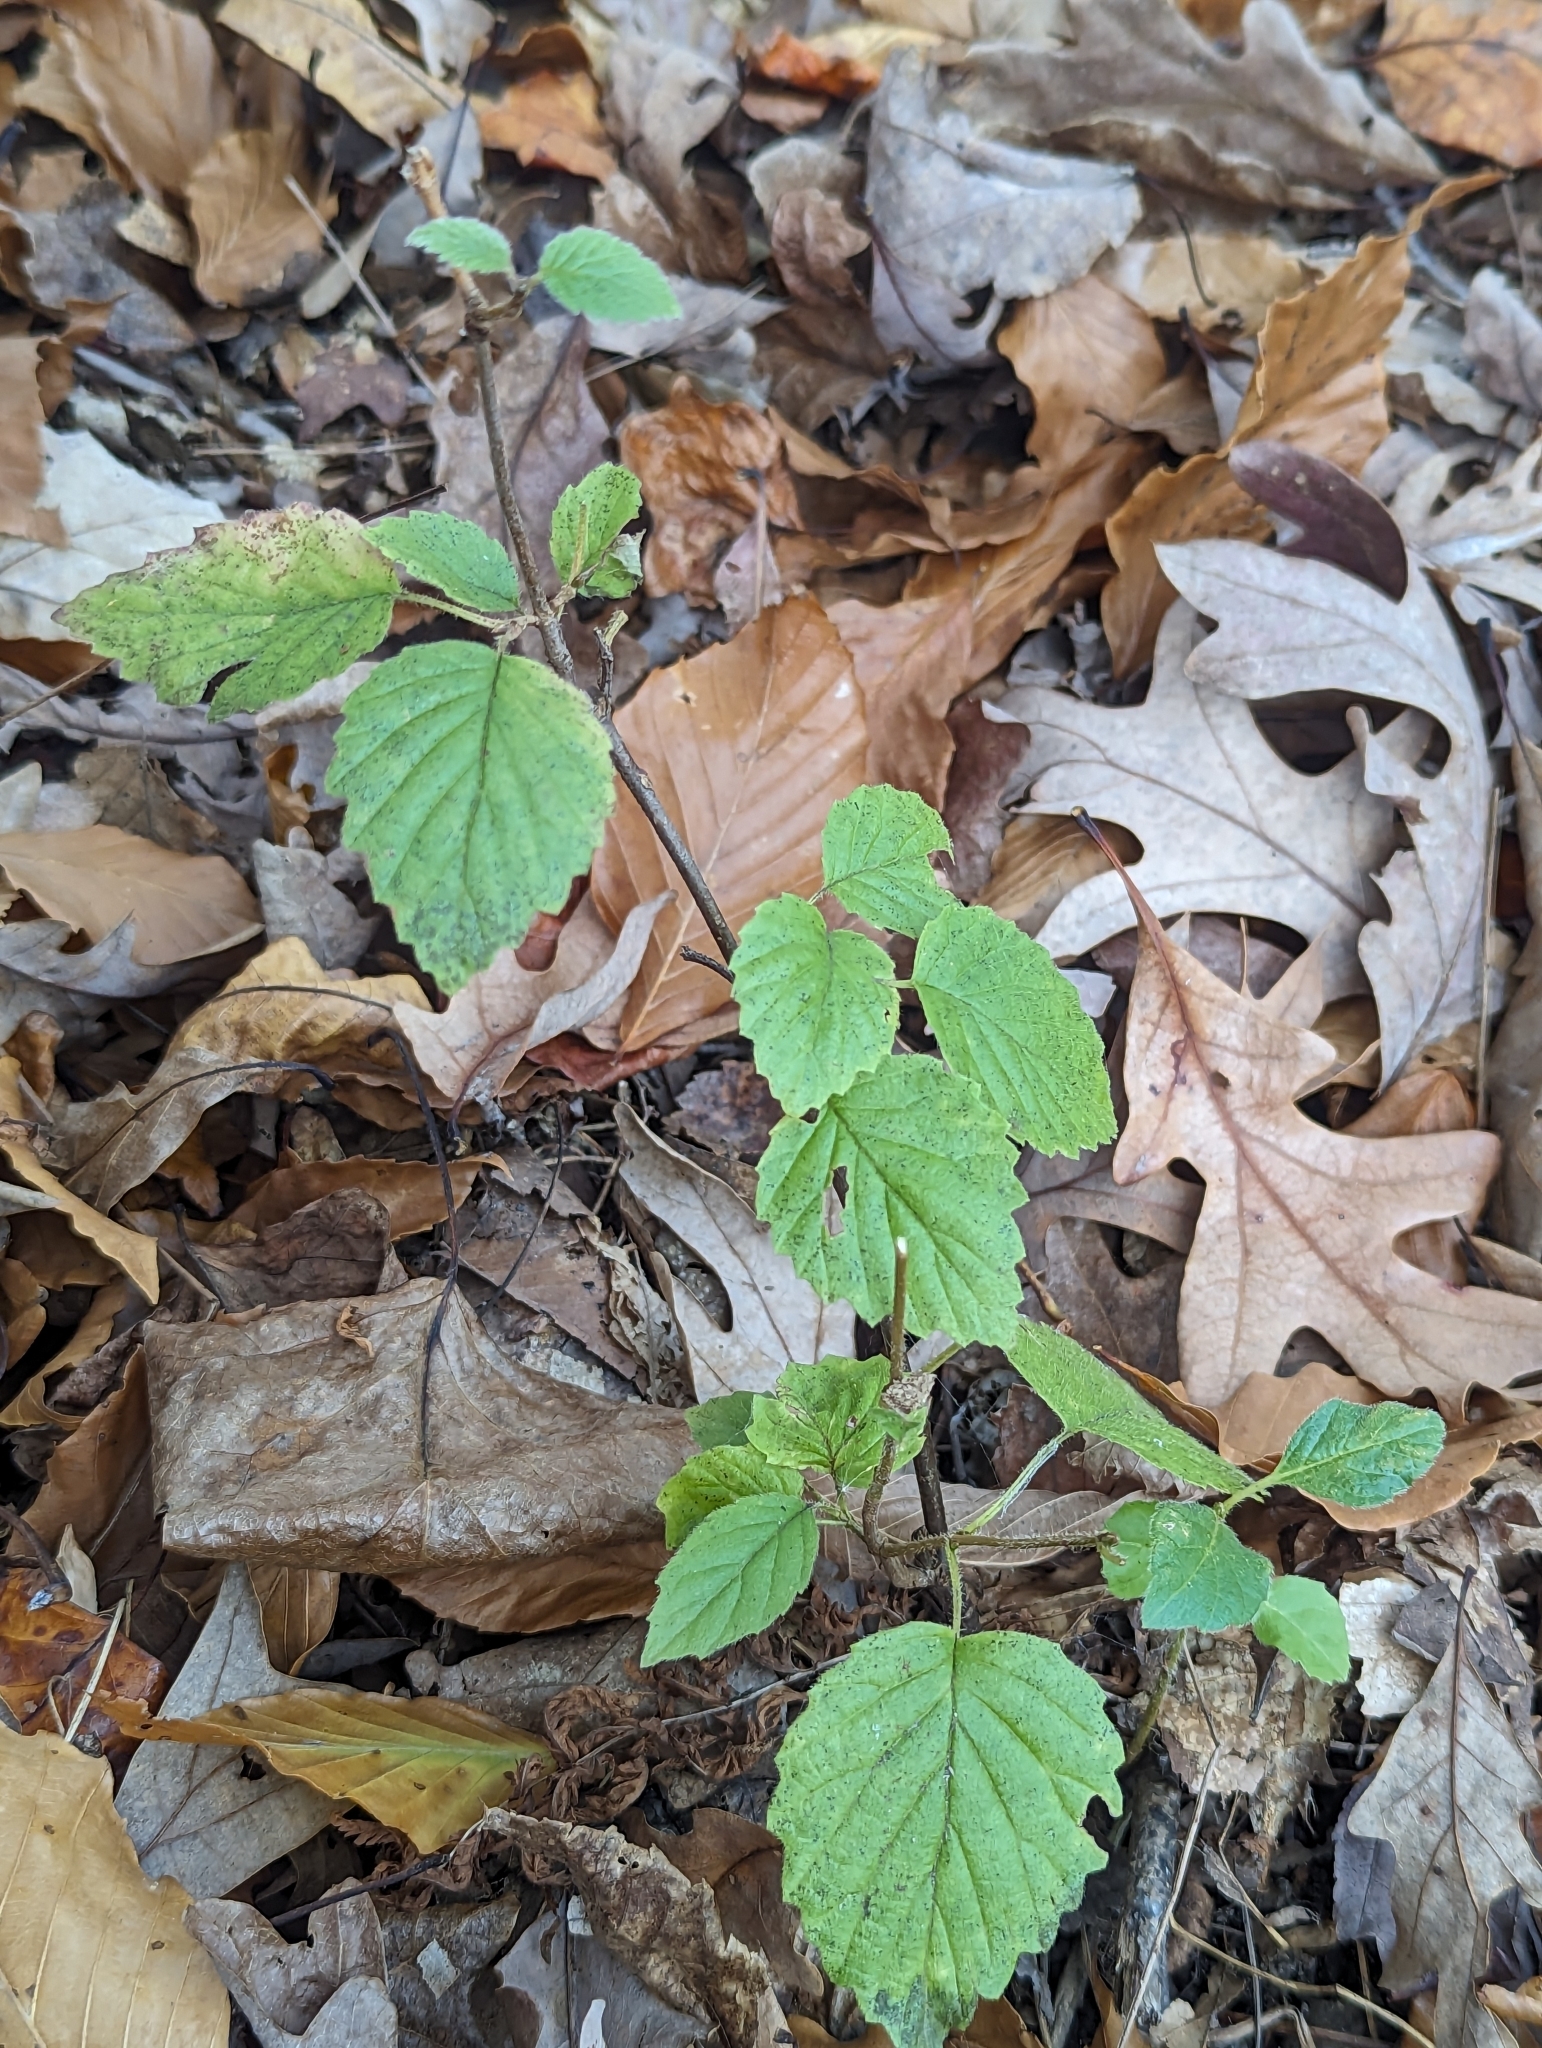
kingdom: Plantae
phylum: Tracheophyta
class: Magnoliopsida
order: Dipsacales
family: Viburnaceae
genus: Viburnum
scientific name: Viburnum dentatum
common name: Arrow-wood
